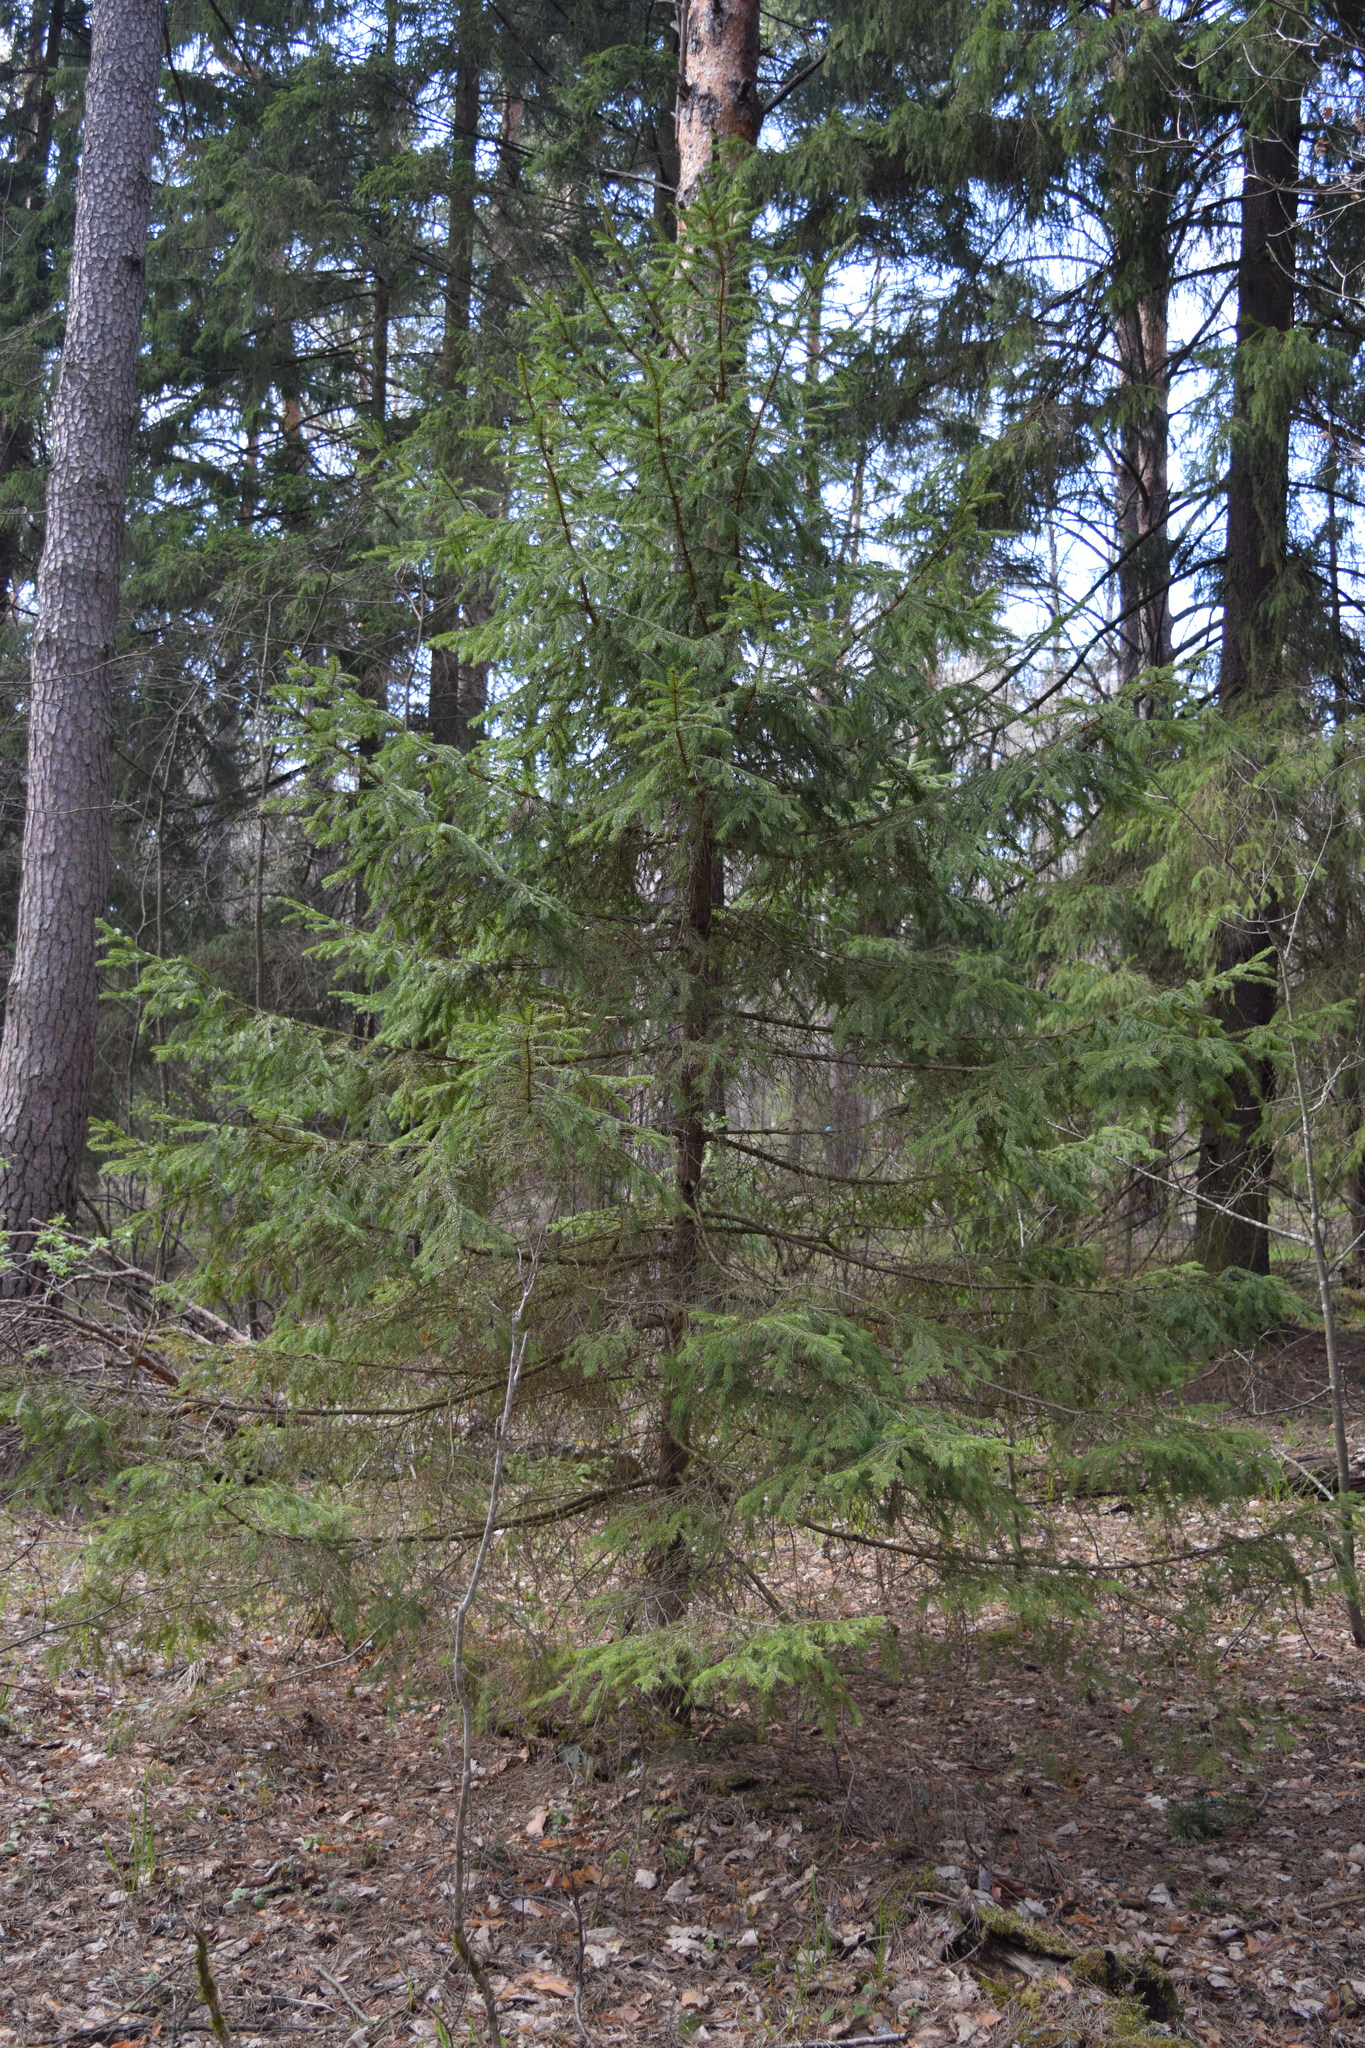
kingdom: Plantae
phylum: Tracheophyta
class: Pinopsida
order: Pinales
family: Pinaceae
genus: Picea
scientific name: Picea abies
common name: Norway spruce
